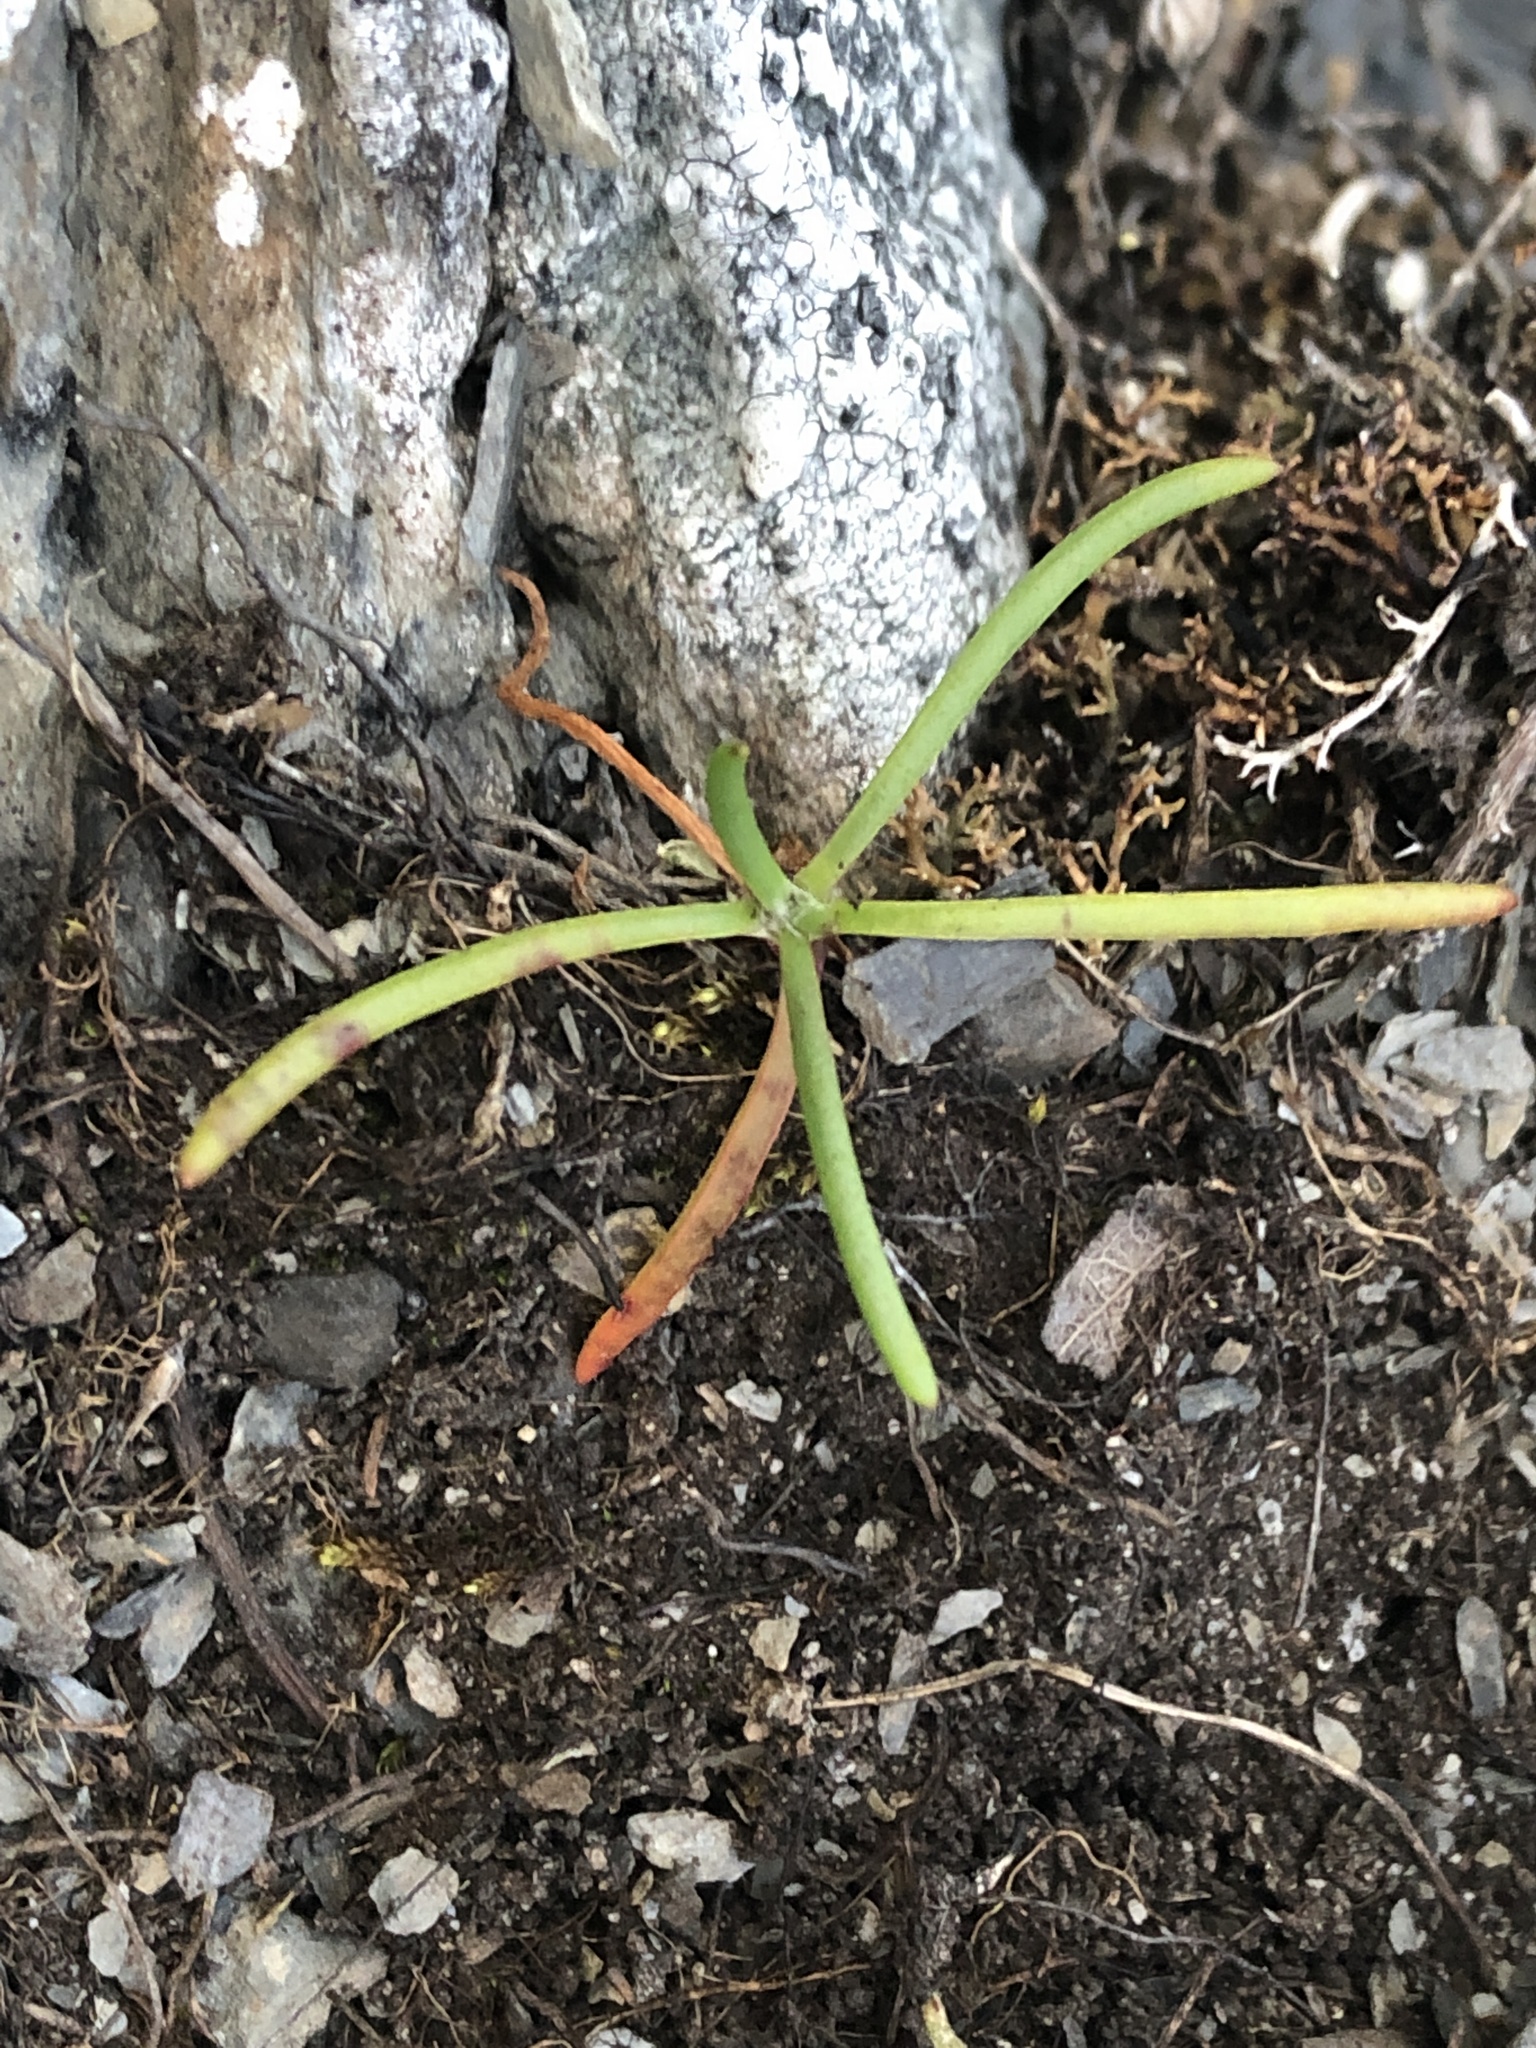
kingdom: Plantae
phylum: Tracheophyta
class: Magnoliopsida
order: Lamiales
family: Plantaginaceae
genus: Plantago
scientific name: Plantago maritima
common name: Sea plantain
